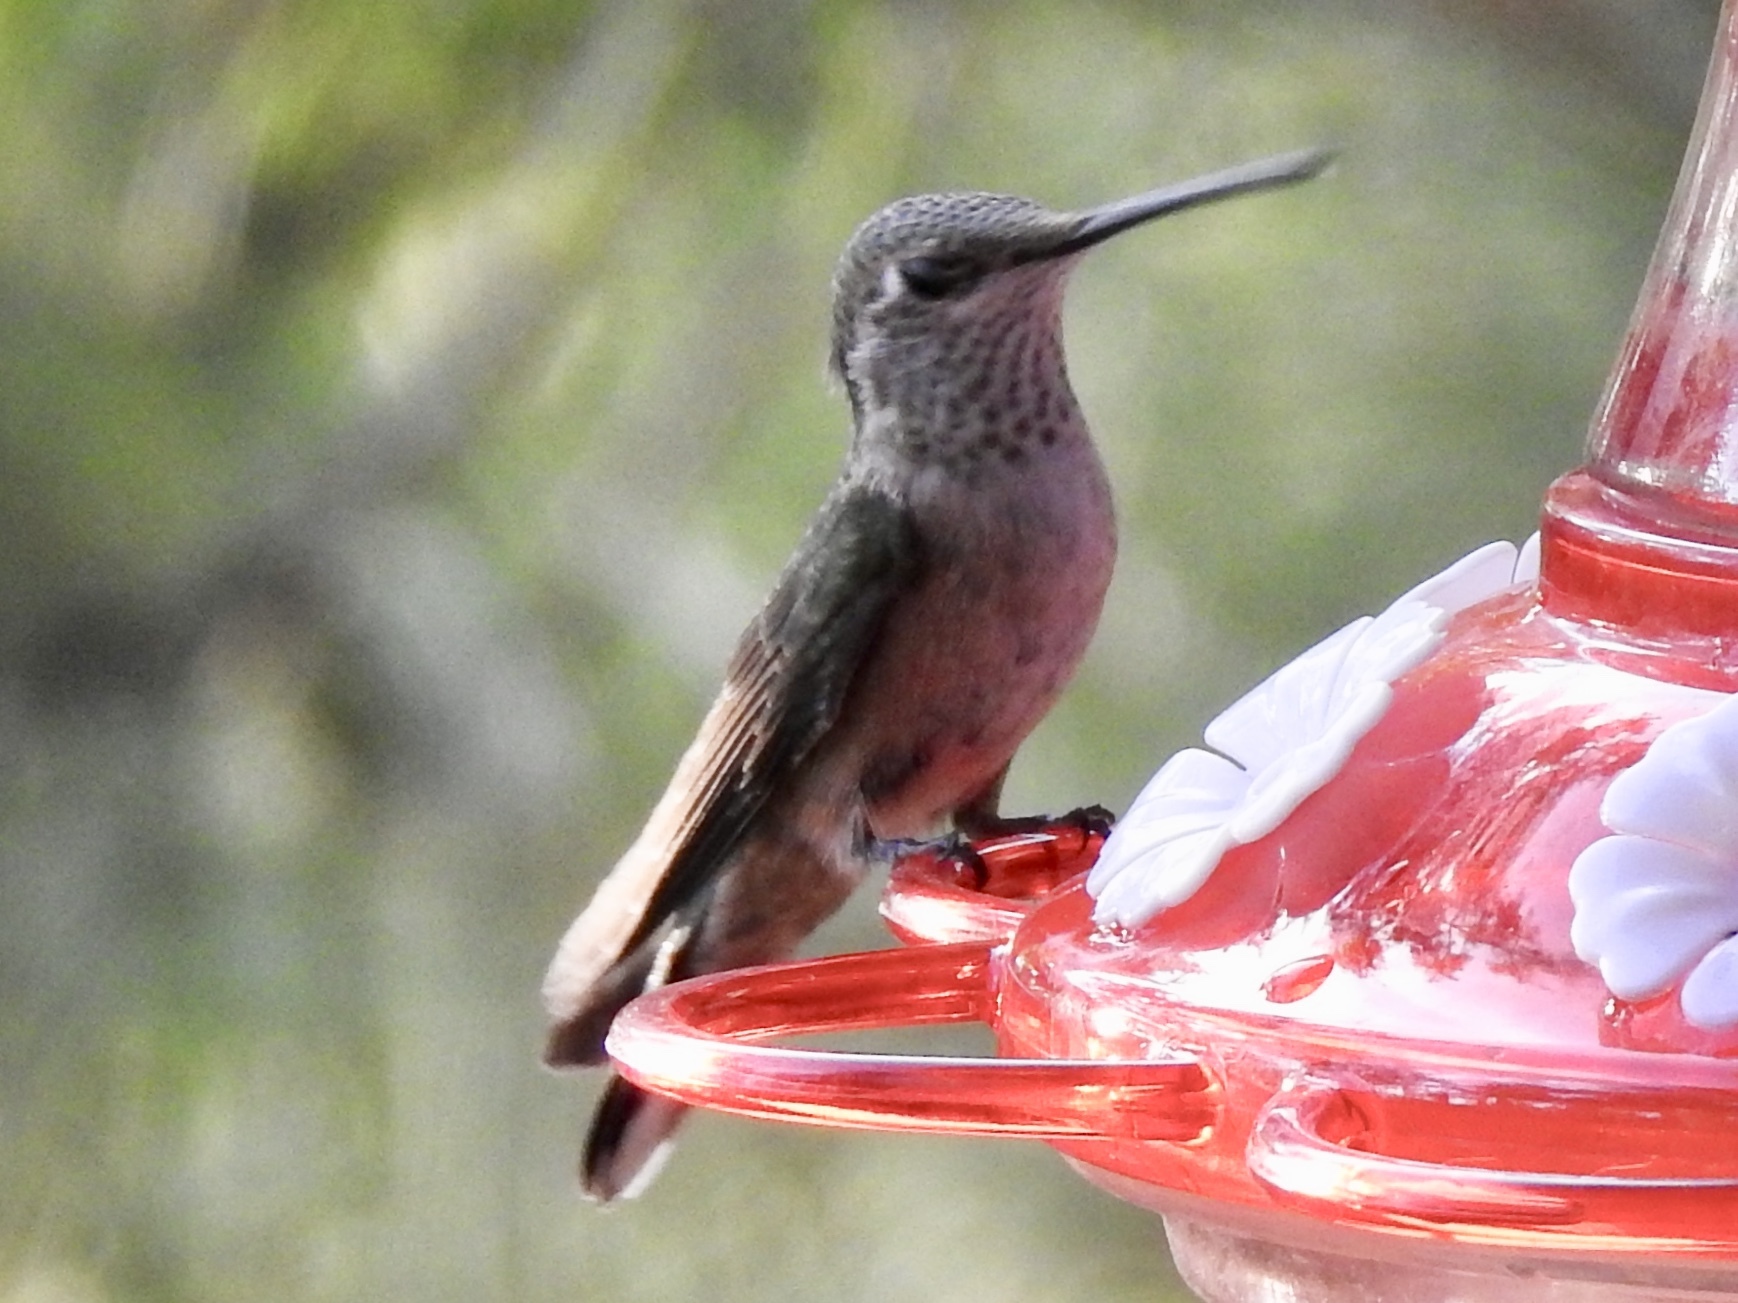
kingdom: Animalia
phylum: Chordata
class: Aves
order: Apodiformes
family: Trochilidae
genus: Archilochus
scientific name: Archilochus alexandri
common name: Black-chinned hummingbird
